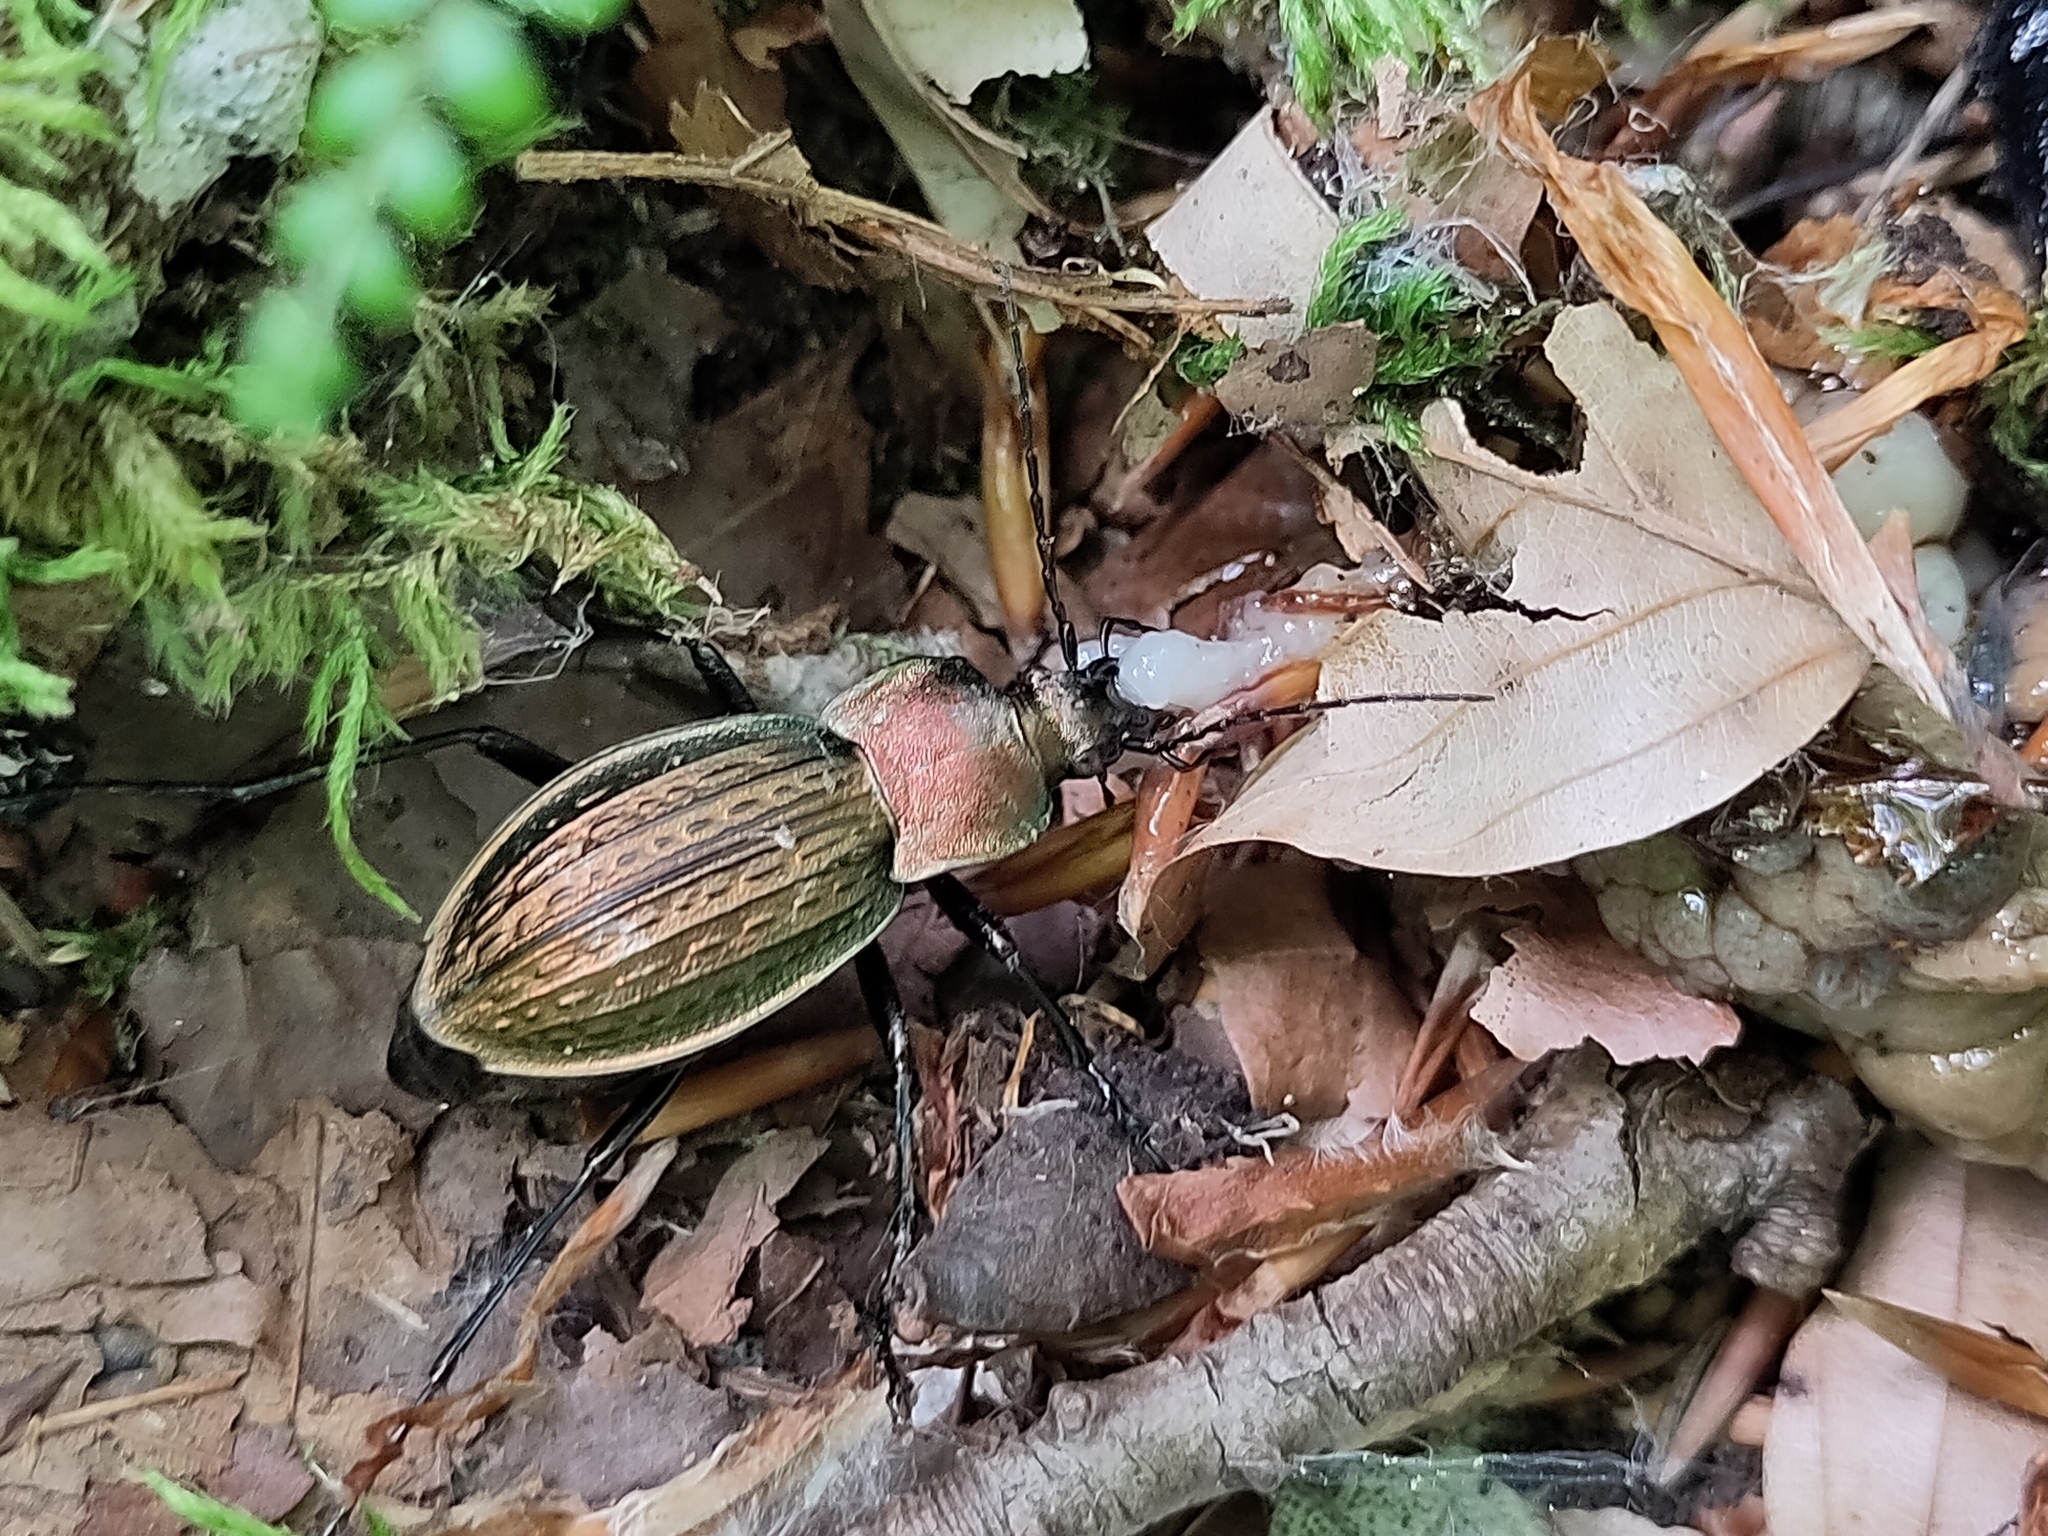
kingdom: Animalia
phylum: Arthropoda
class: Insecta
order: Coleoptera
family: Carabidae
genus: Carabus
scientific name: Carabus cancellatus
